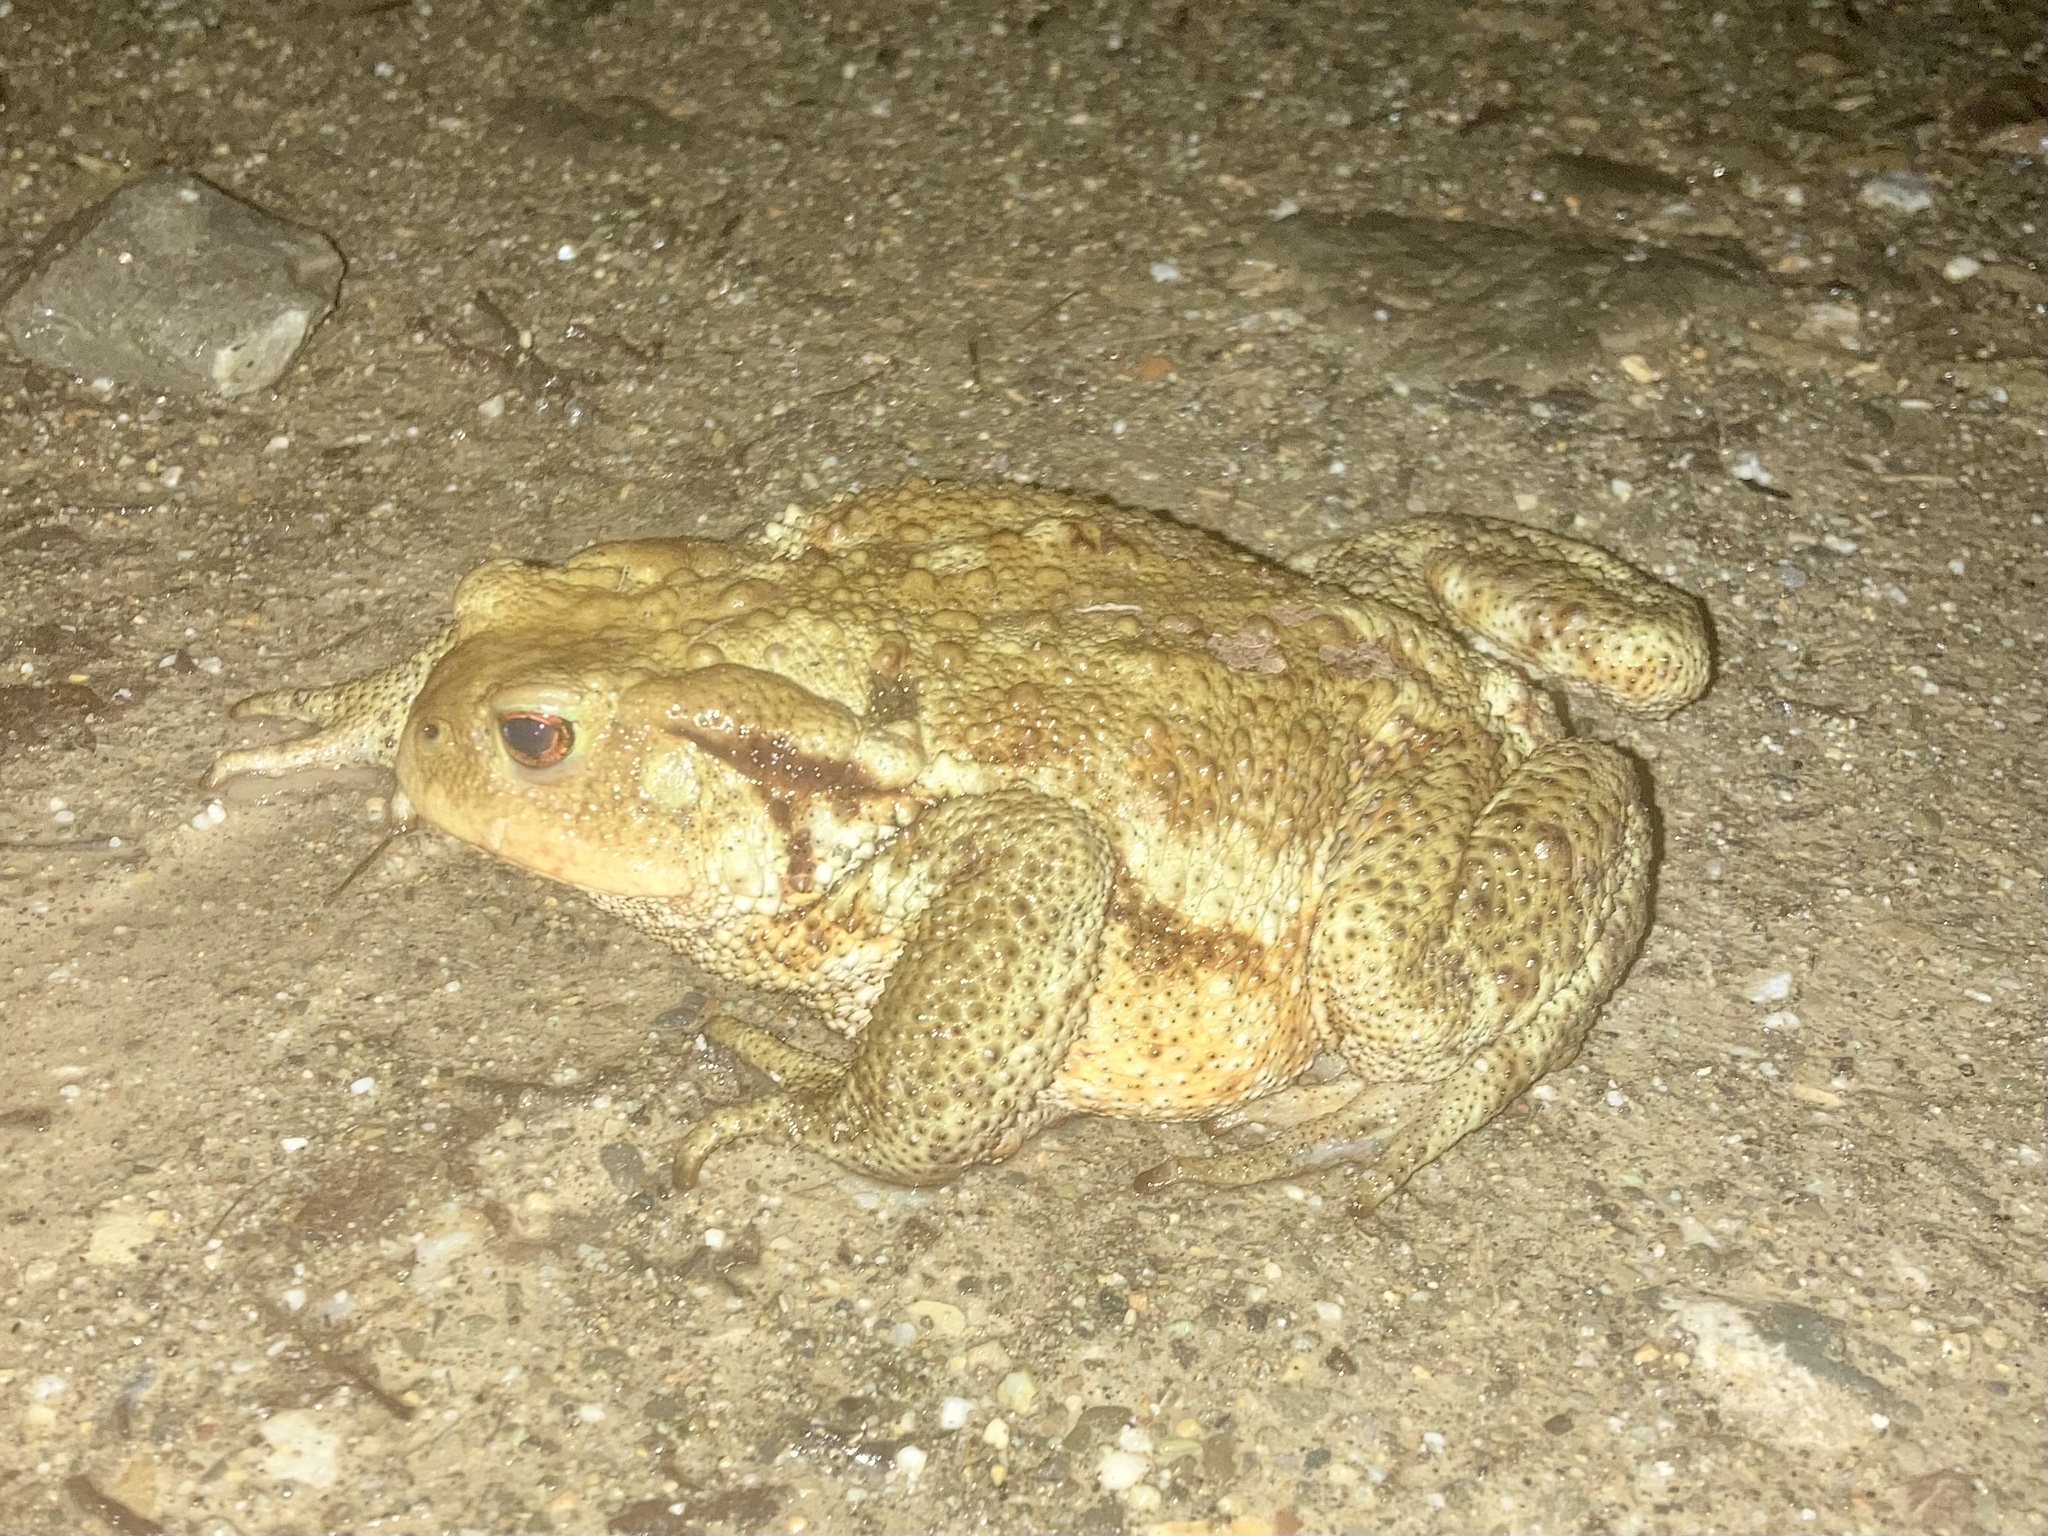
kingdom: Animalia
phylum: Chordata
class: Amphibia
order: Anura
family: Bufonidae
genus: Bufo
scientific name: Bufo bufo
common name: Common toad
